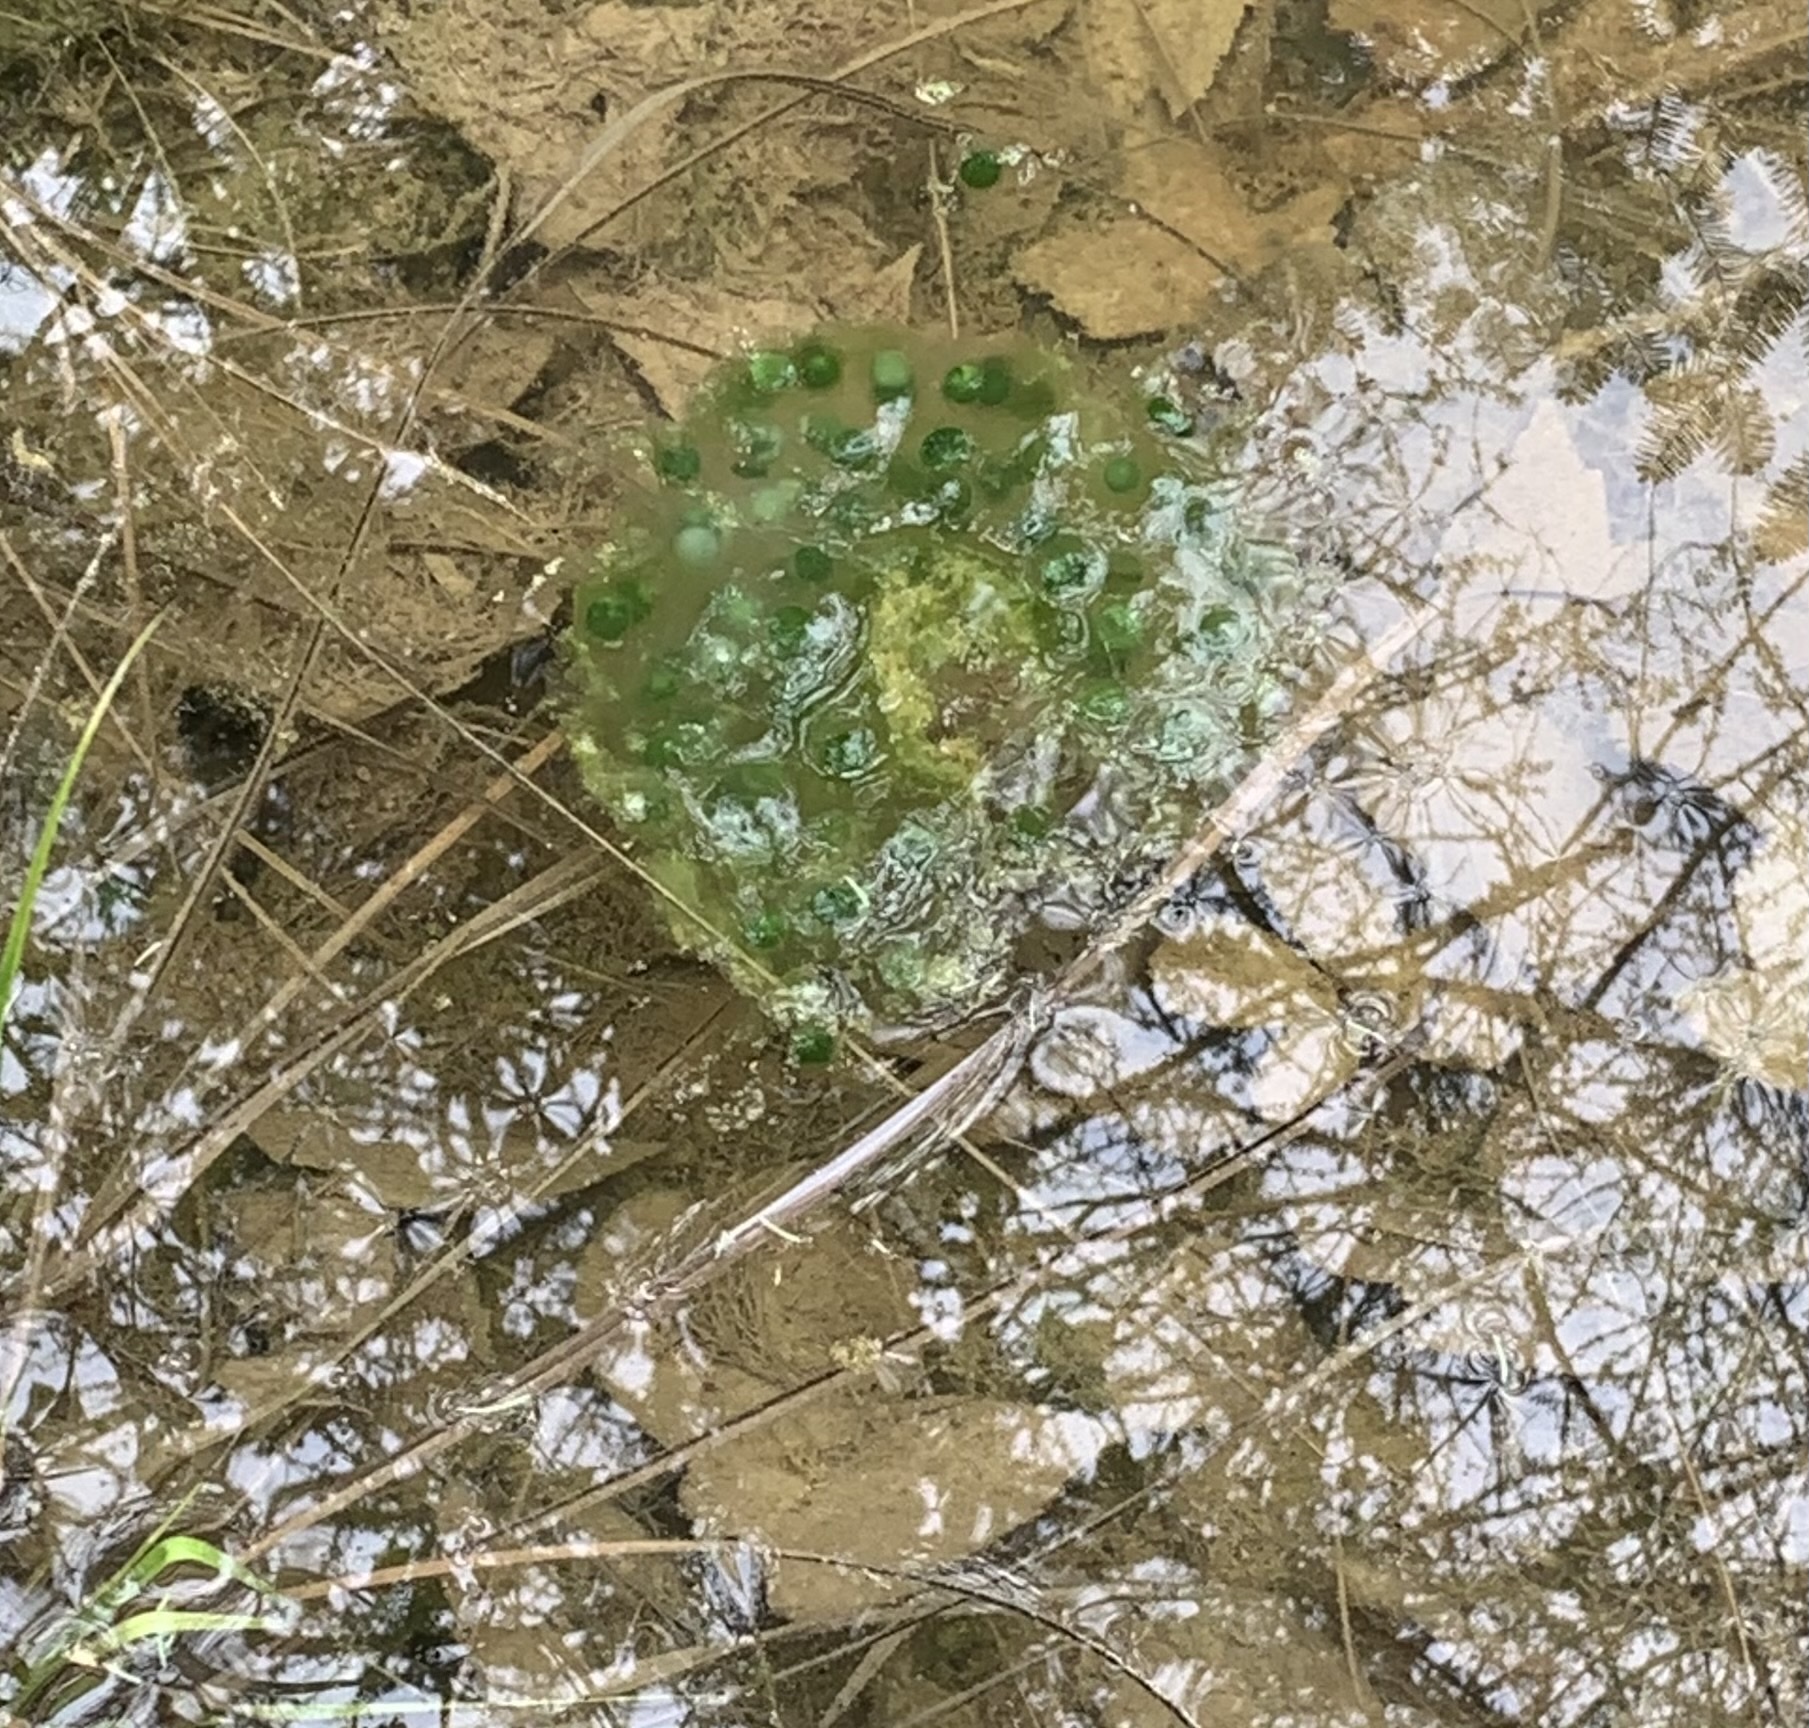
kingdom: Animalia
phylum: Chordata
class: Amphibia
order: Caudata
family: Ambystomatidae
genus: Ambystoma
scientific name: Ambystoma maculatum
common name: Spotted salamander
